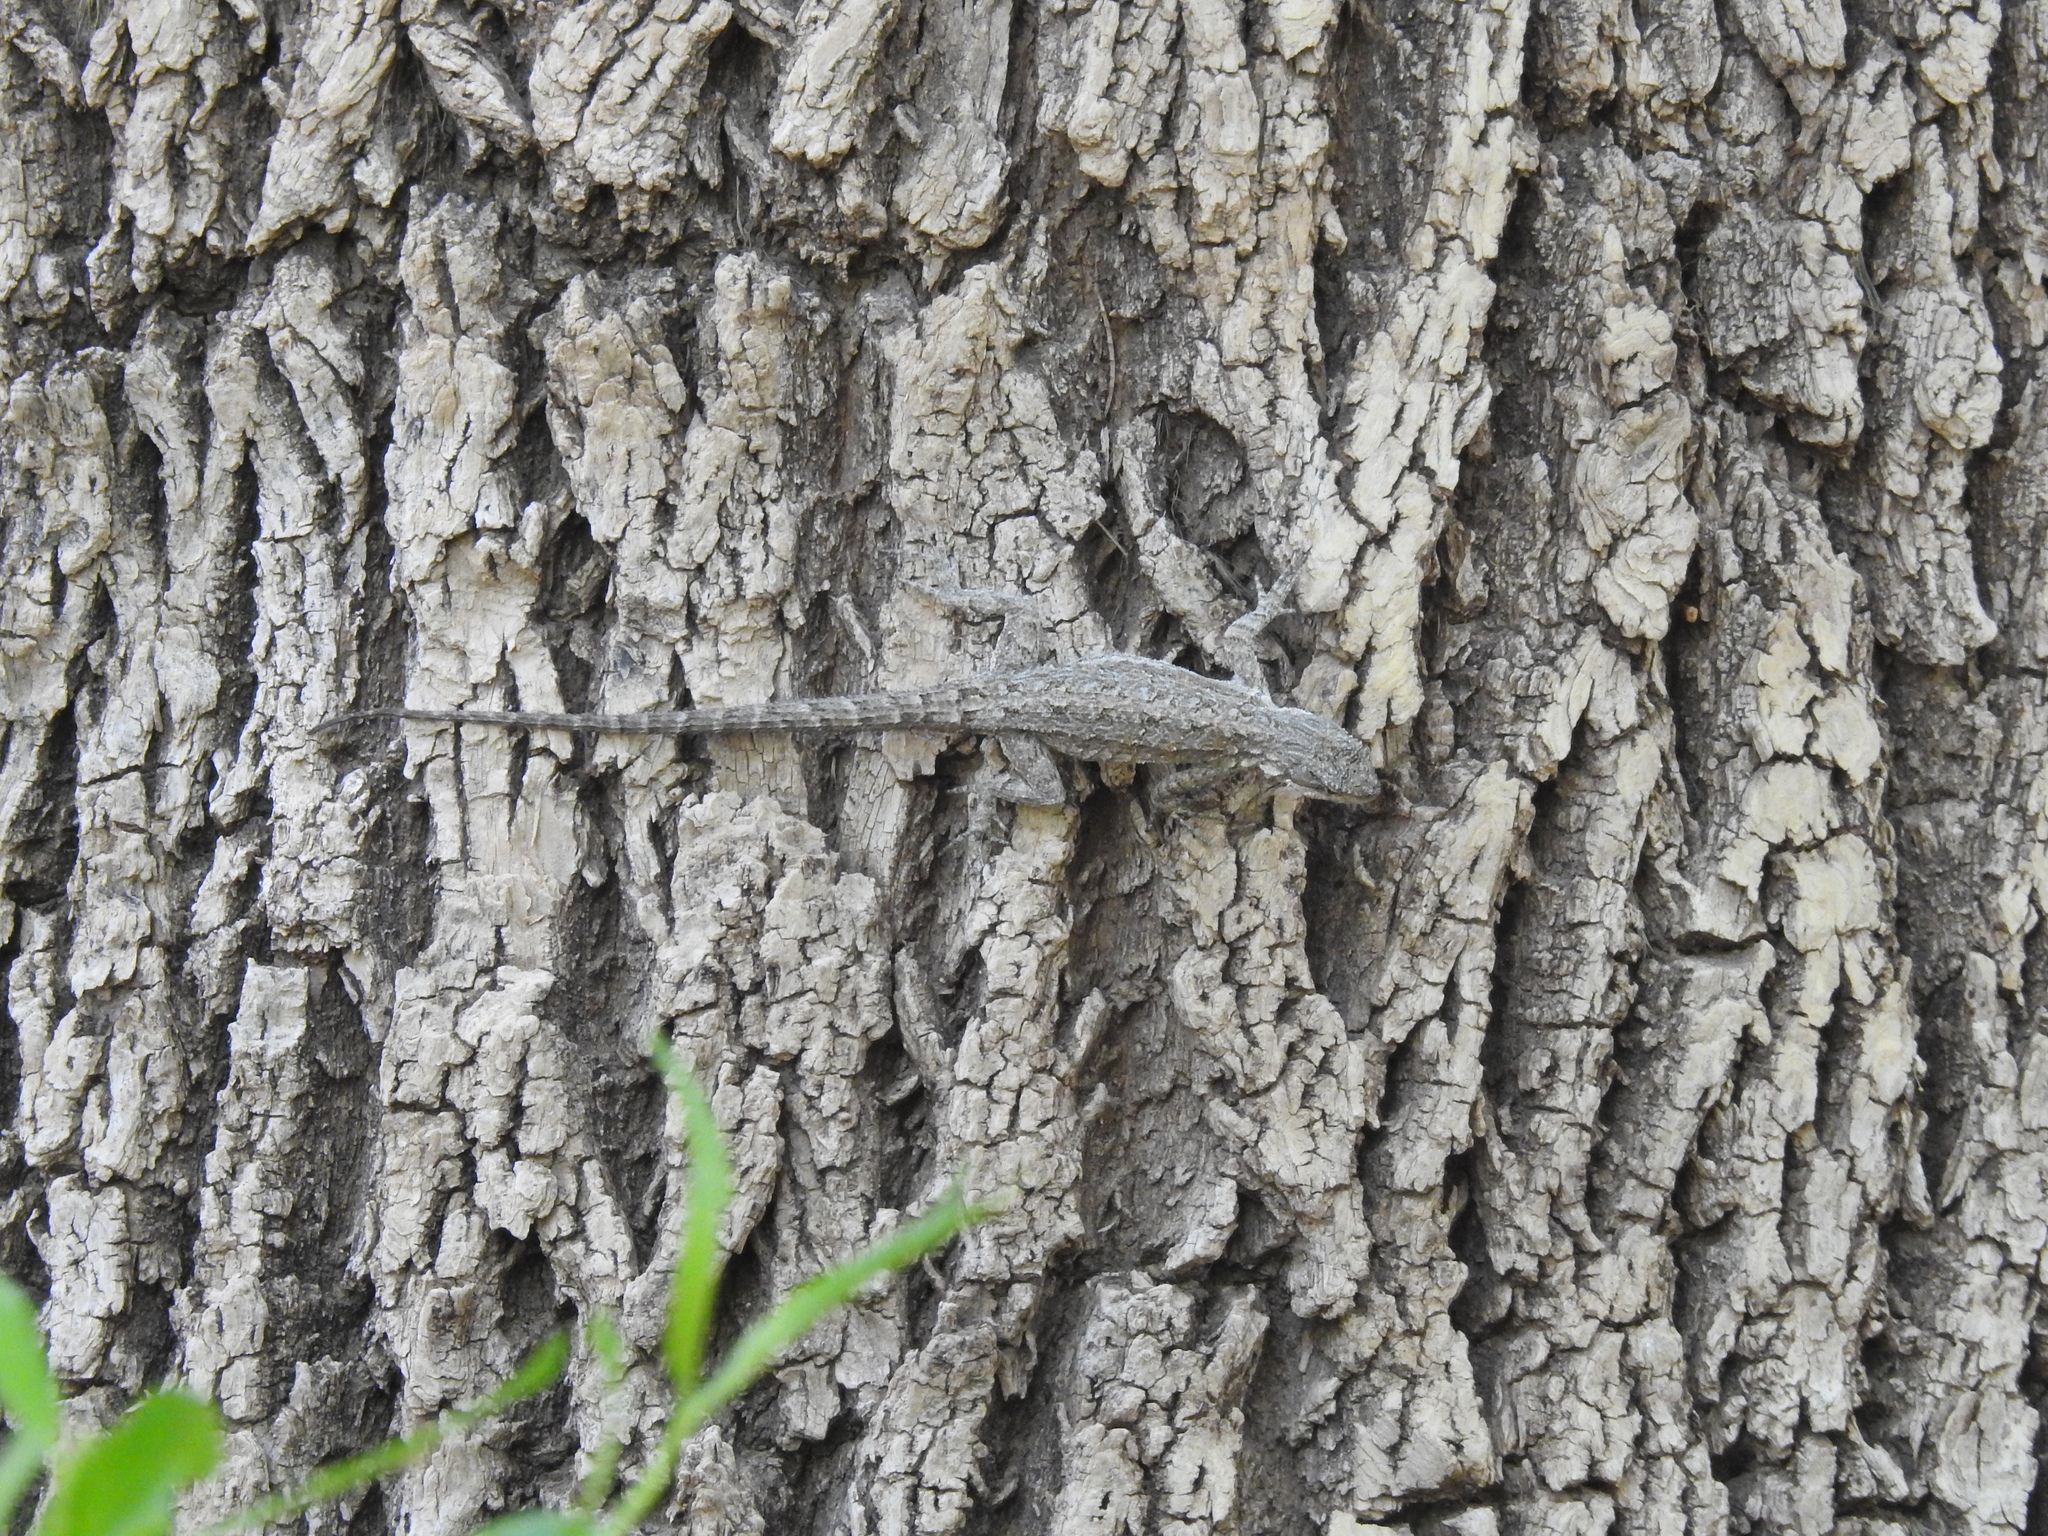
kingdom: Animalia
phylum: Chordata
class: Squamata
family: Phrynosomatidae
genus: Urosaurus
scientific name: Urosaurus ornatus
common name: Ornate tree lizard
